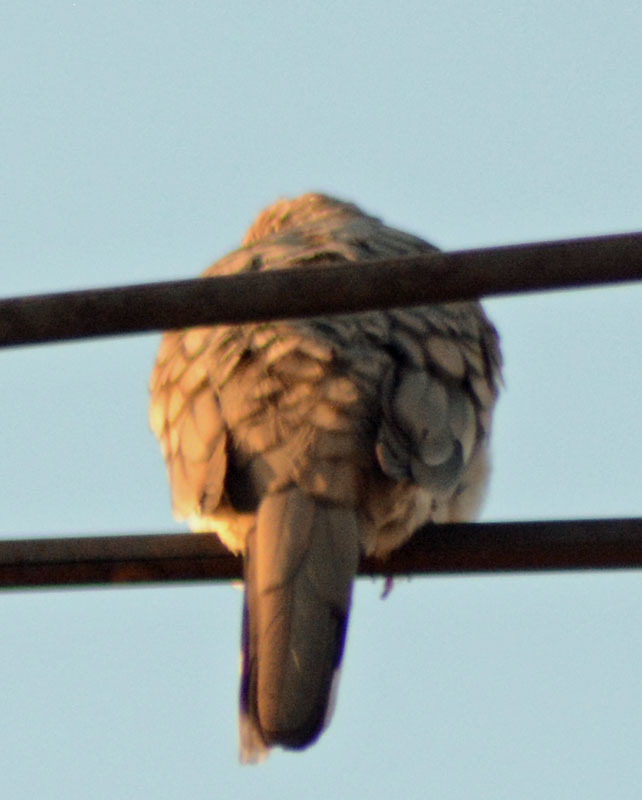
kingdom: Animalia
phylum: Chordata
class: Aves
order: Columbiformes
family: Columbidae
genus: Columbina
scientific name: Columbina inca
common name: Inca dove
